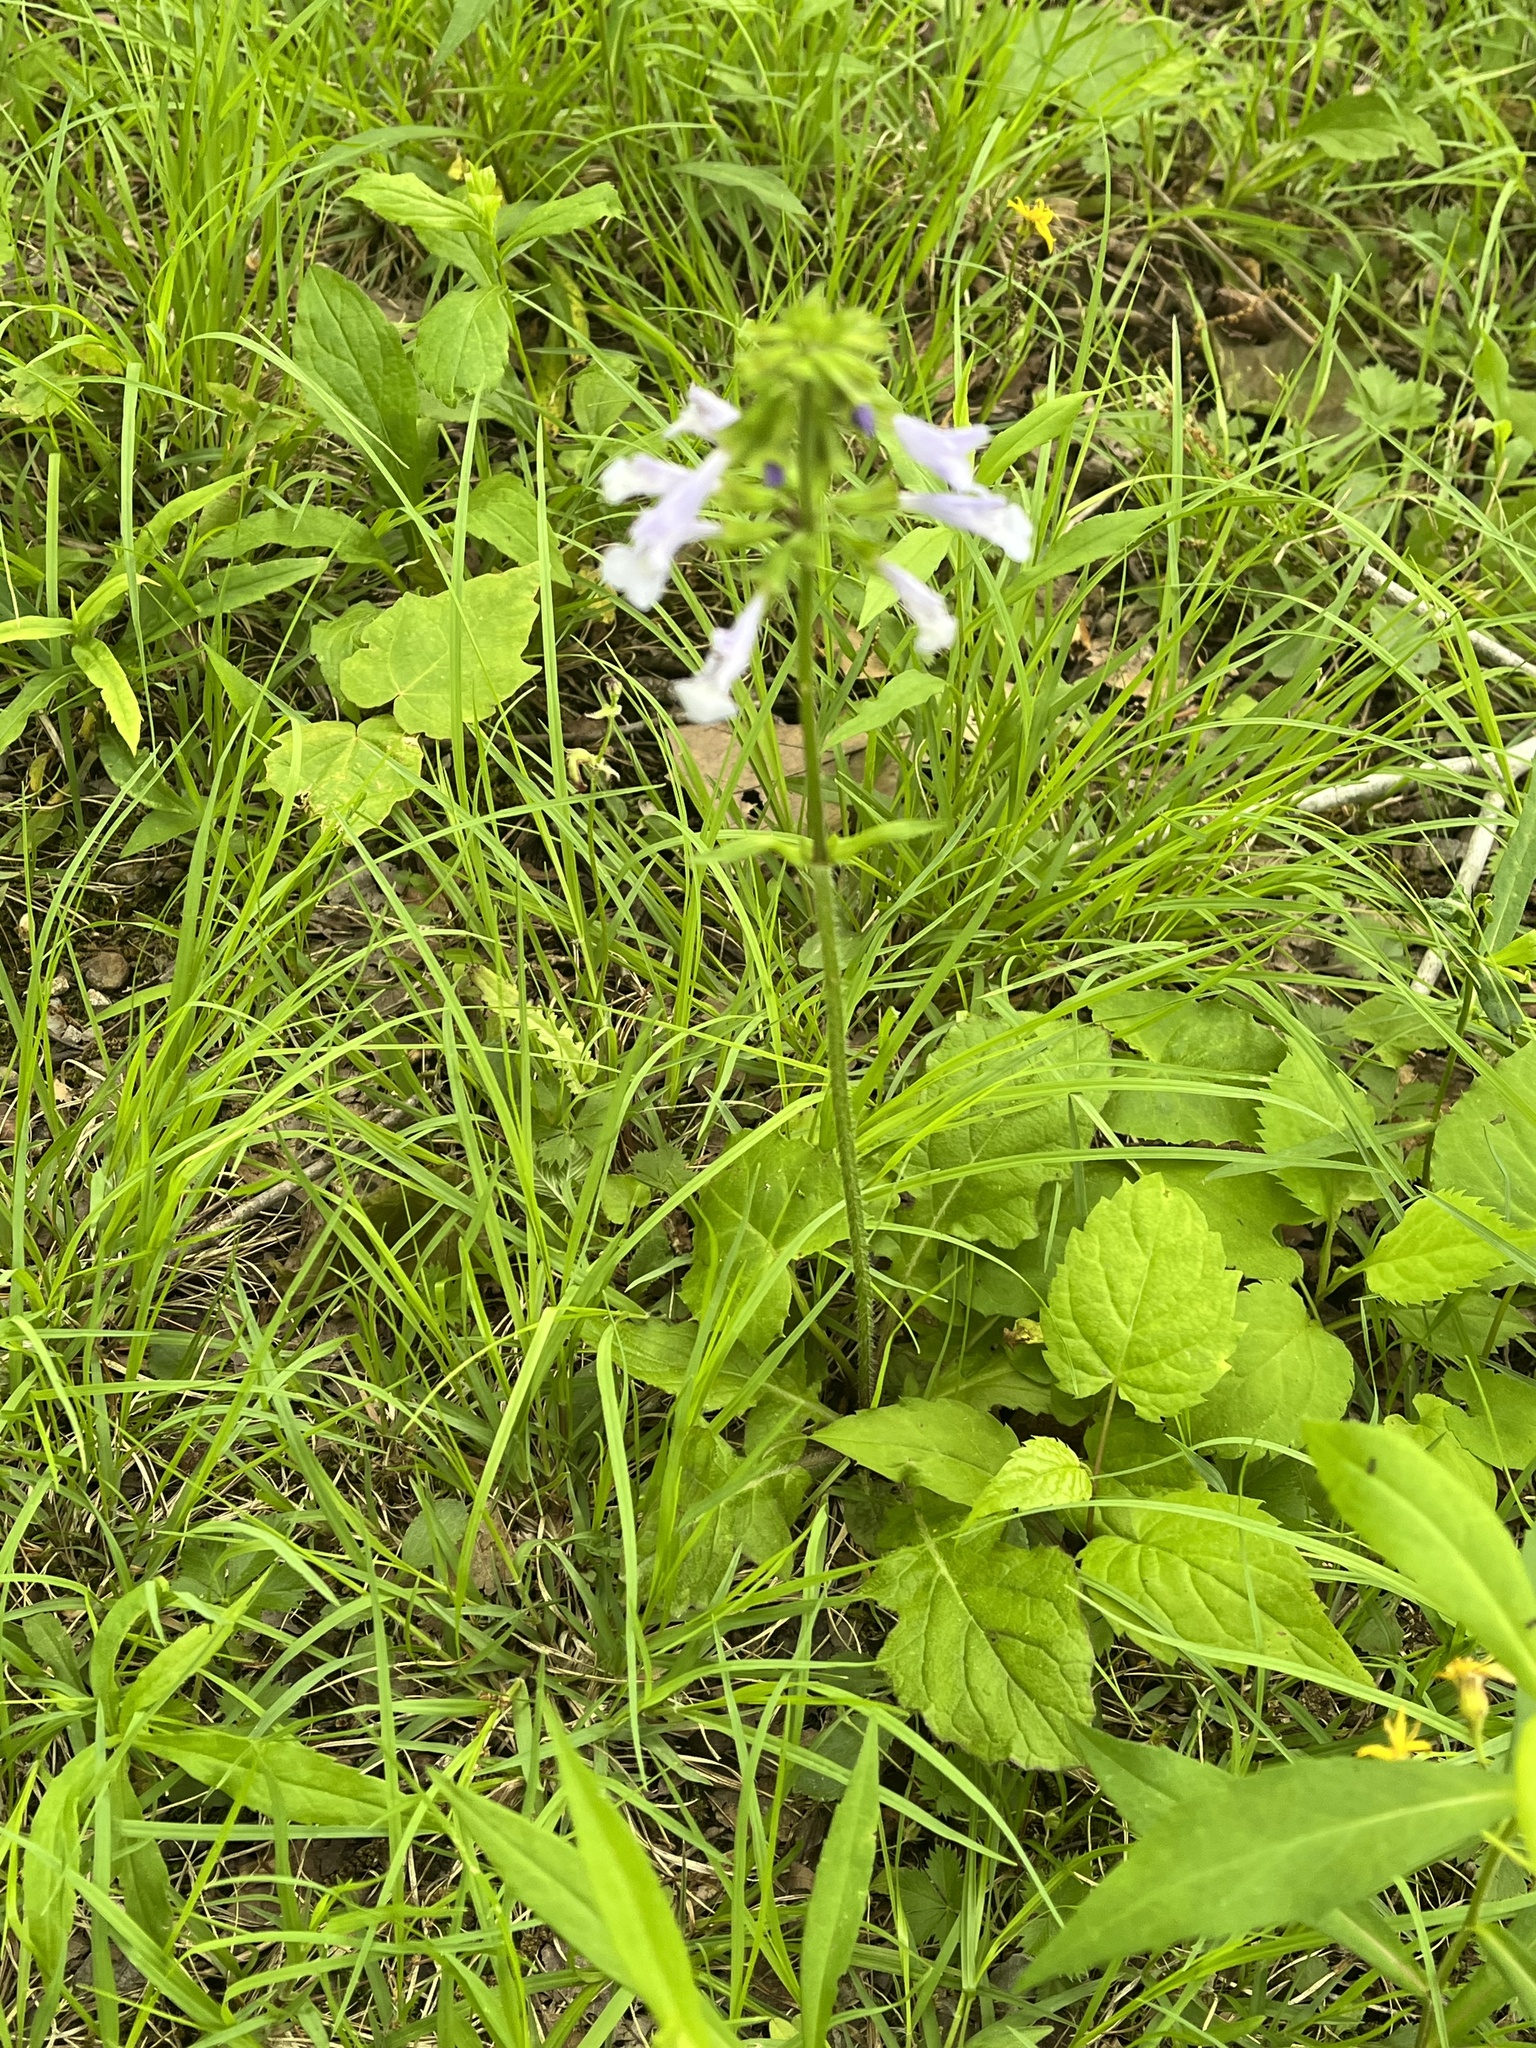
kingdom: Plantae
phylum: Tracheophyta
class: Magnoliopsida
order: Lamiales
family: Lamiaceae
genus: Salvia
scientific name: Salvia lyrata
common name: Cancerweed
